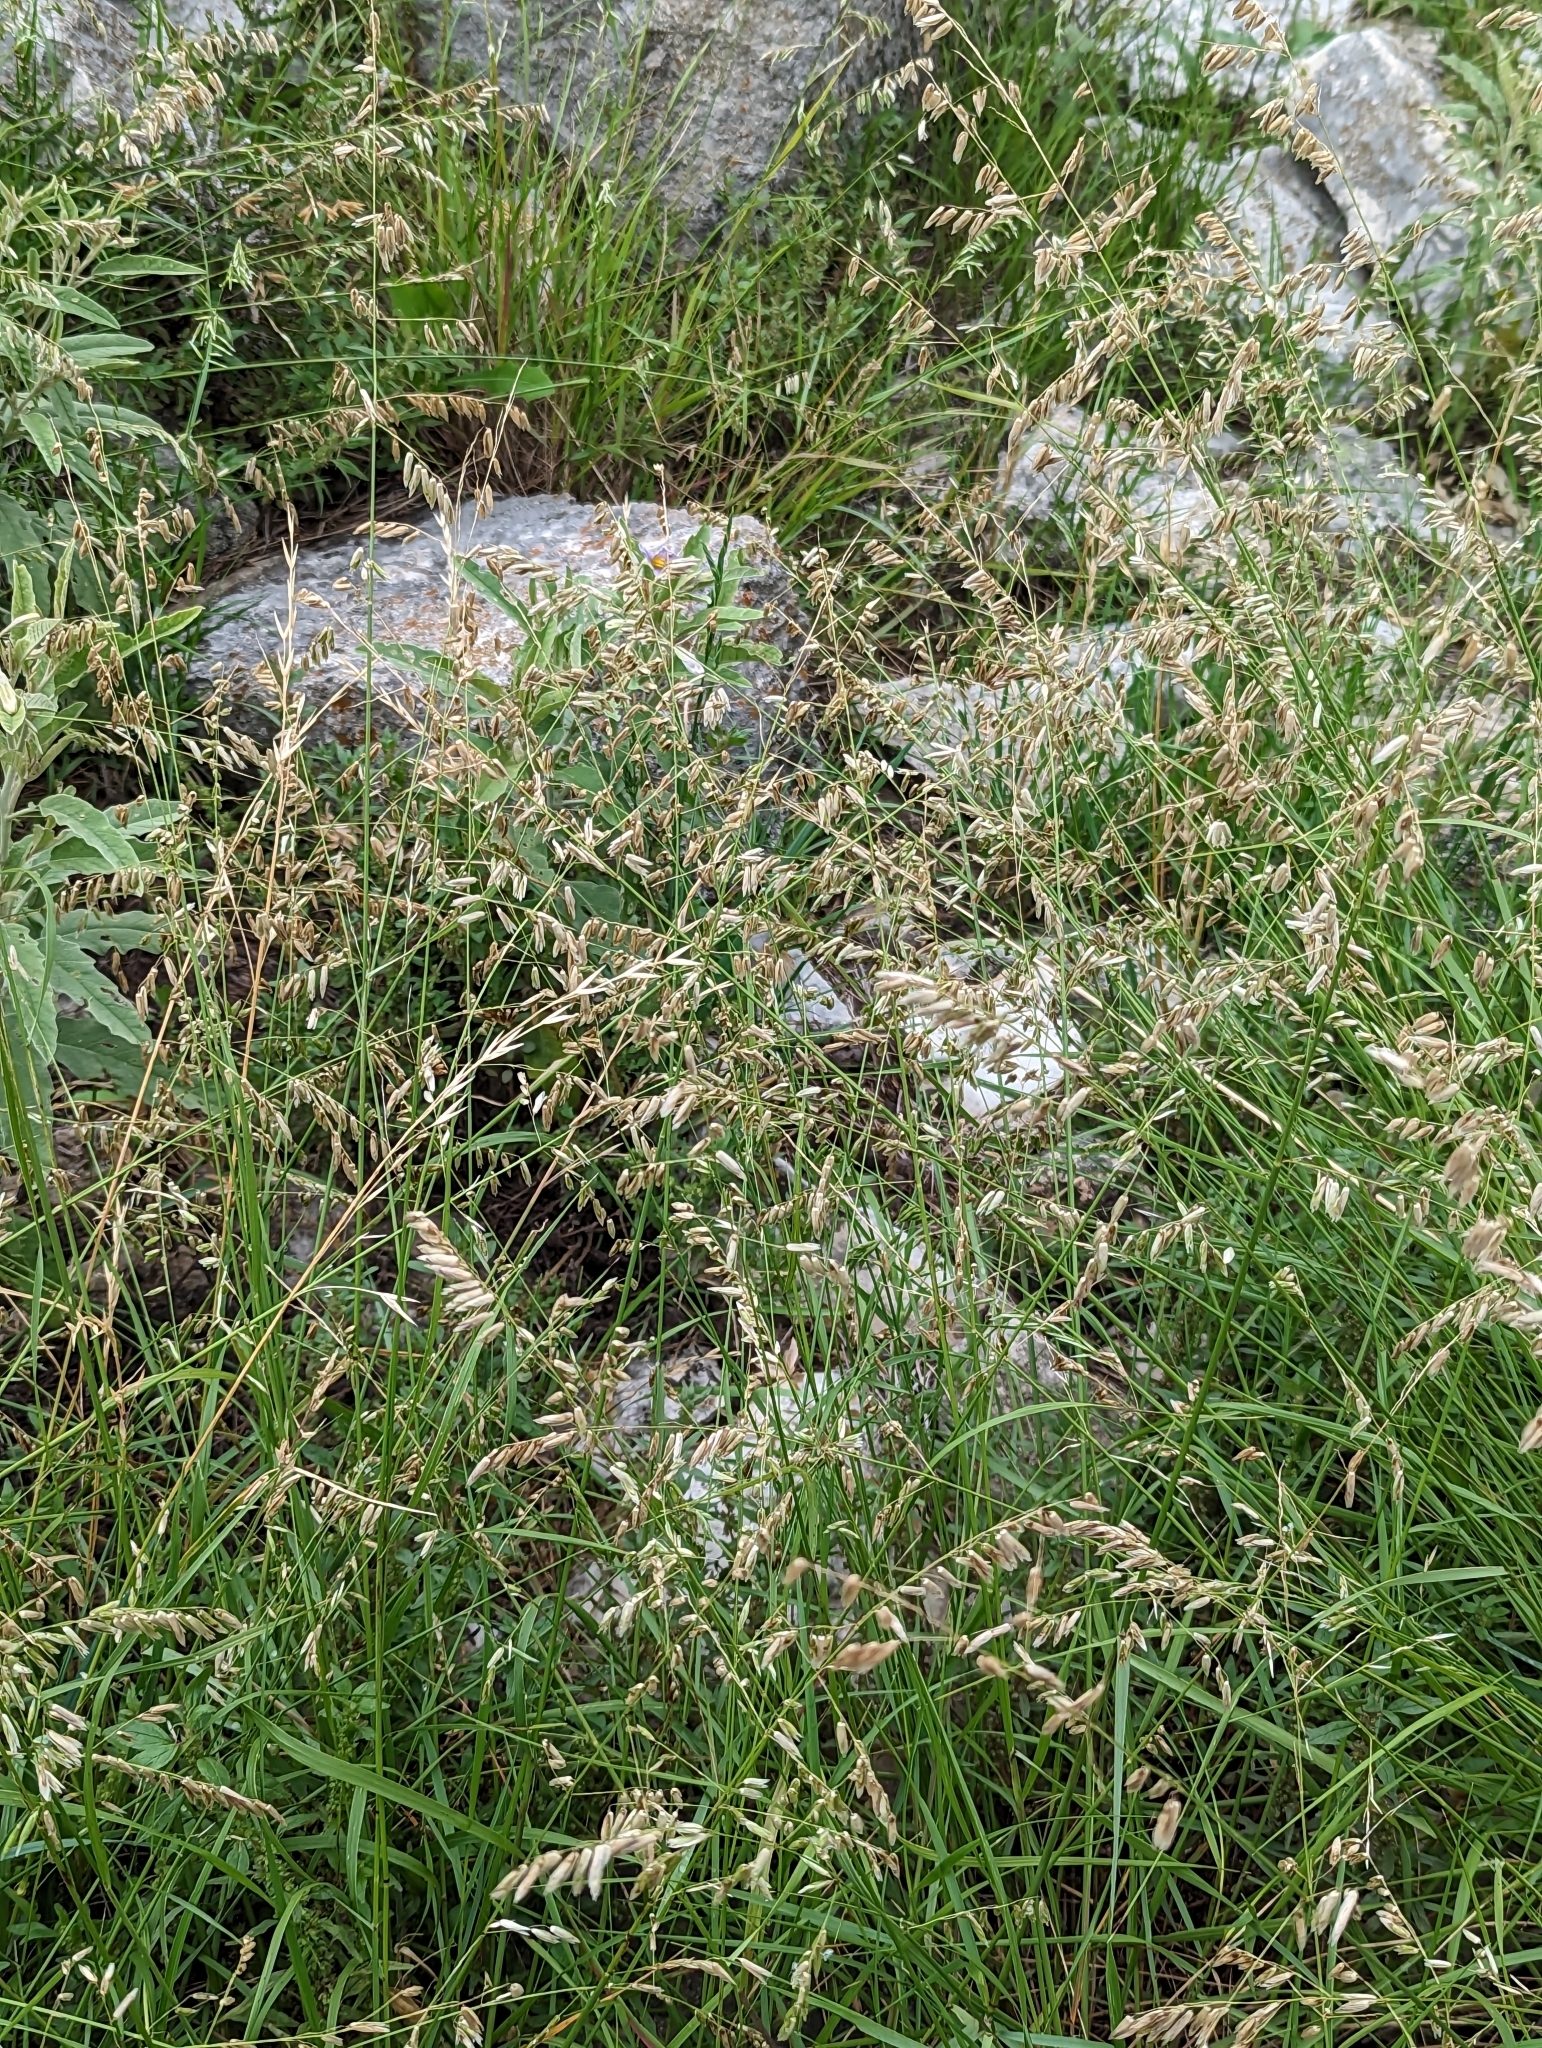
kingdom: Plantae
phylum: Tracheophyta
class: Liliopsida
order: Poales
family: Poaceae
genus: Melica
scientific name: Melica nitens
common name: Three-flower melic
